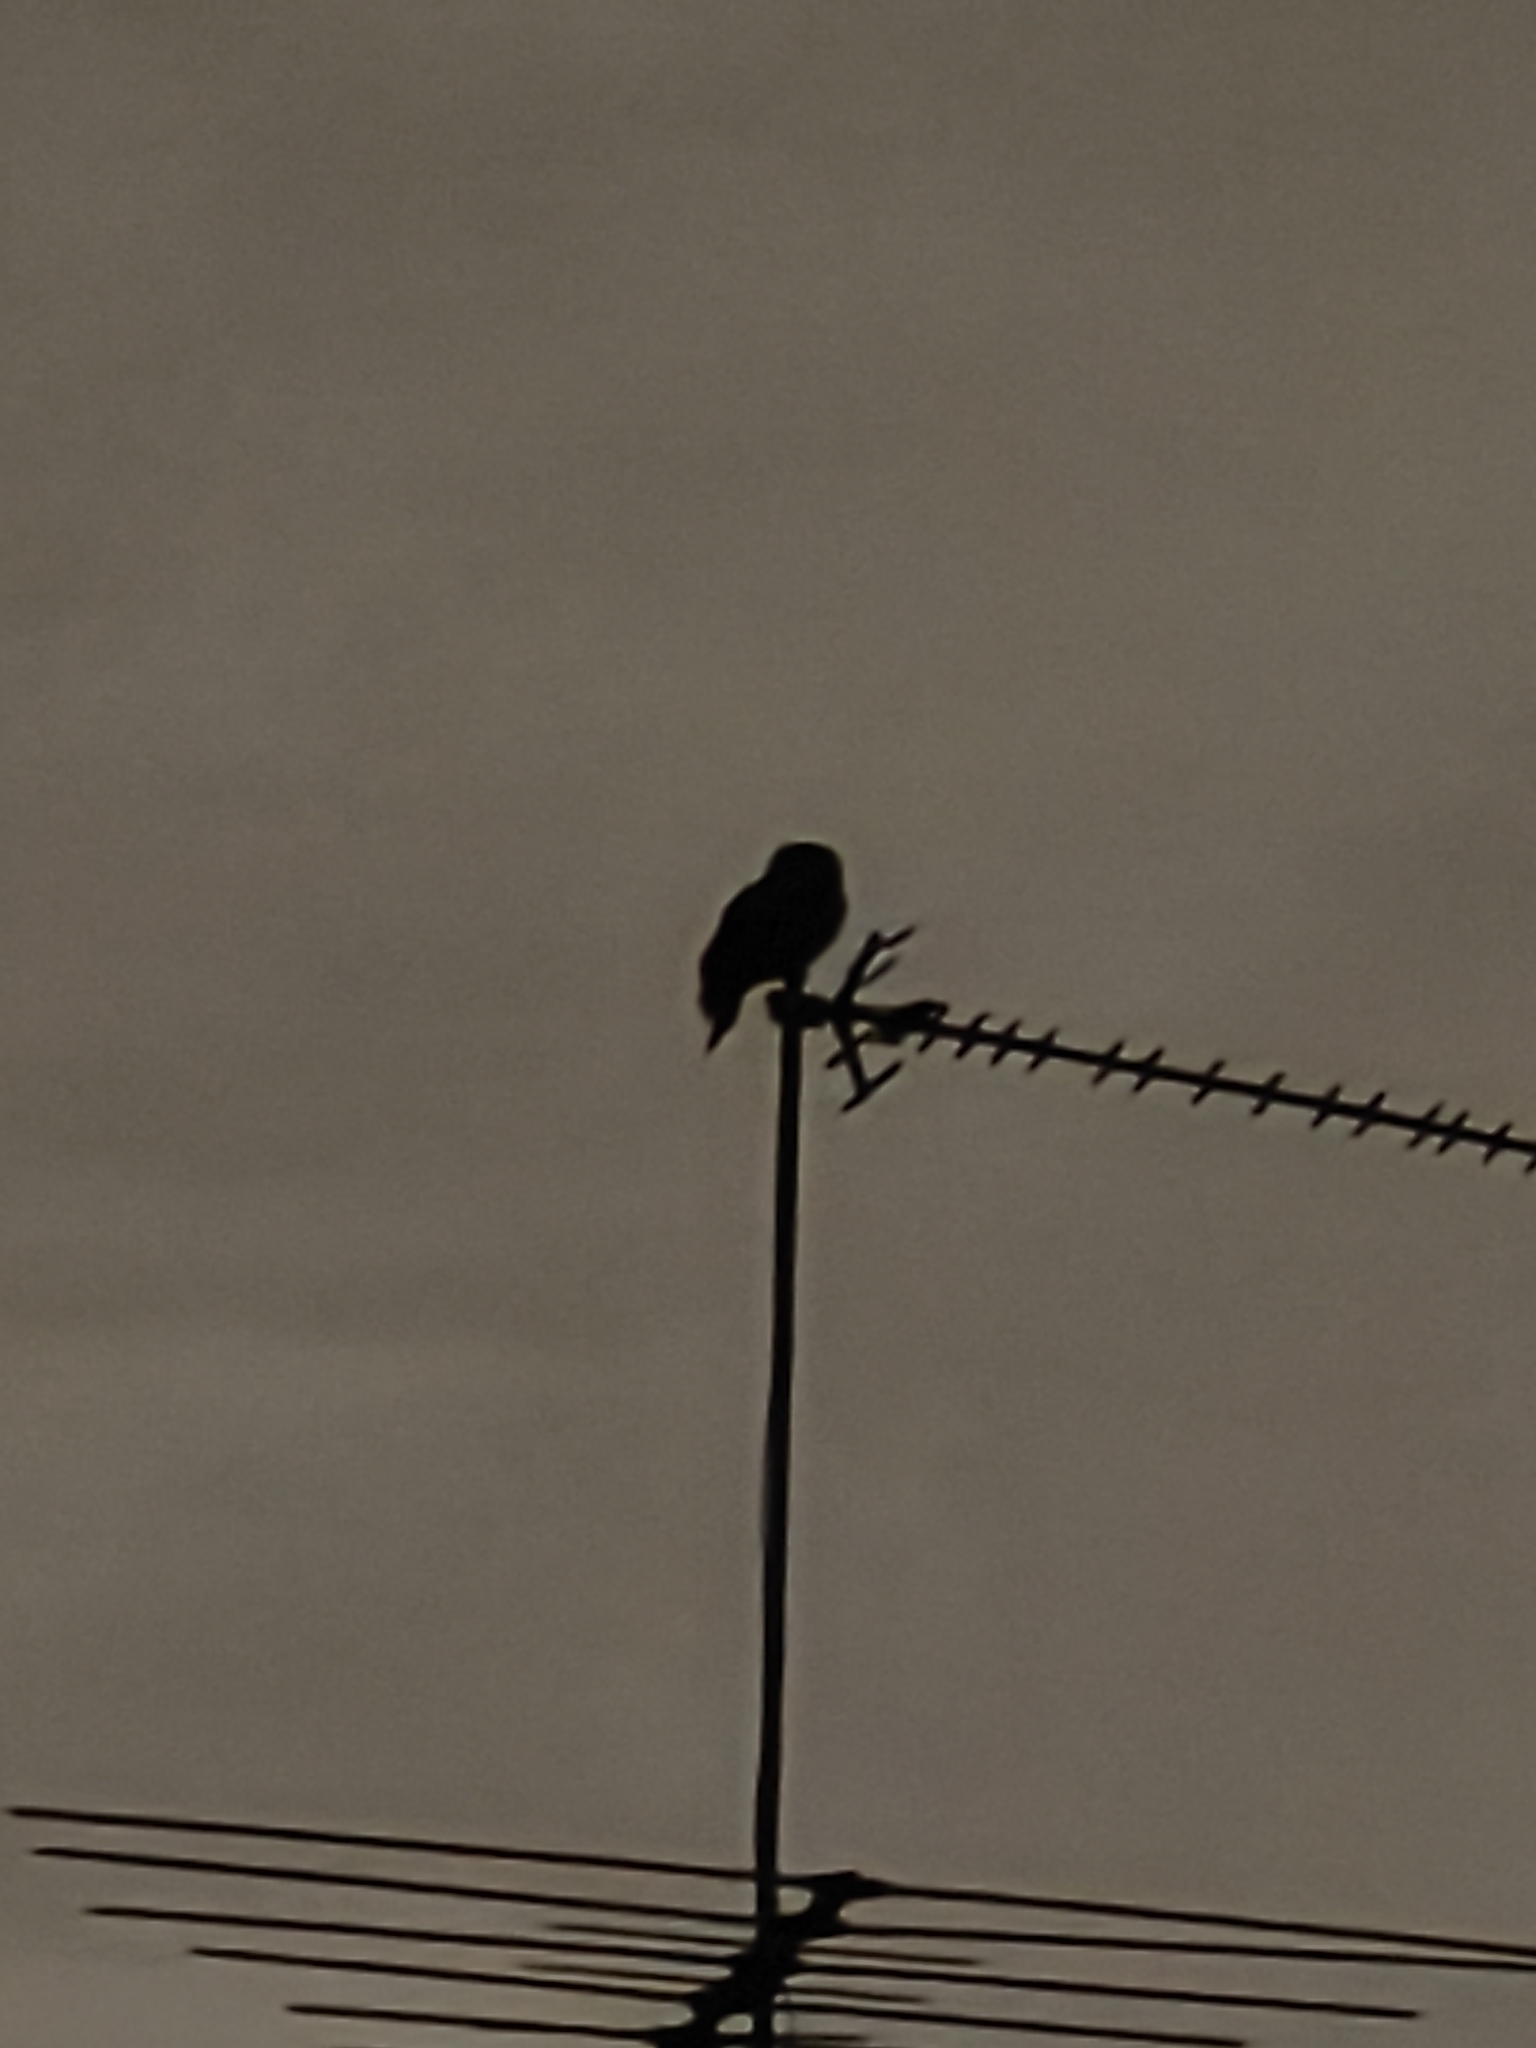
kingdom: Animalia
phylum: Chordata
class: Aves
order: Caprimulgiformes
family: Podargidae
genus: Podargus
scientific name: Podargus strigoides
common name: Tawny frogmouth
